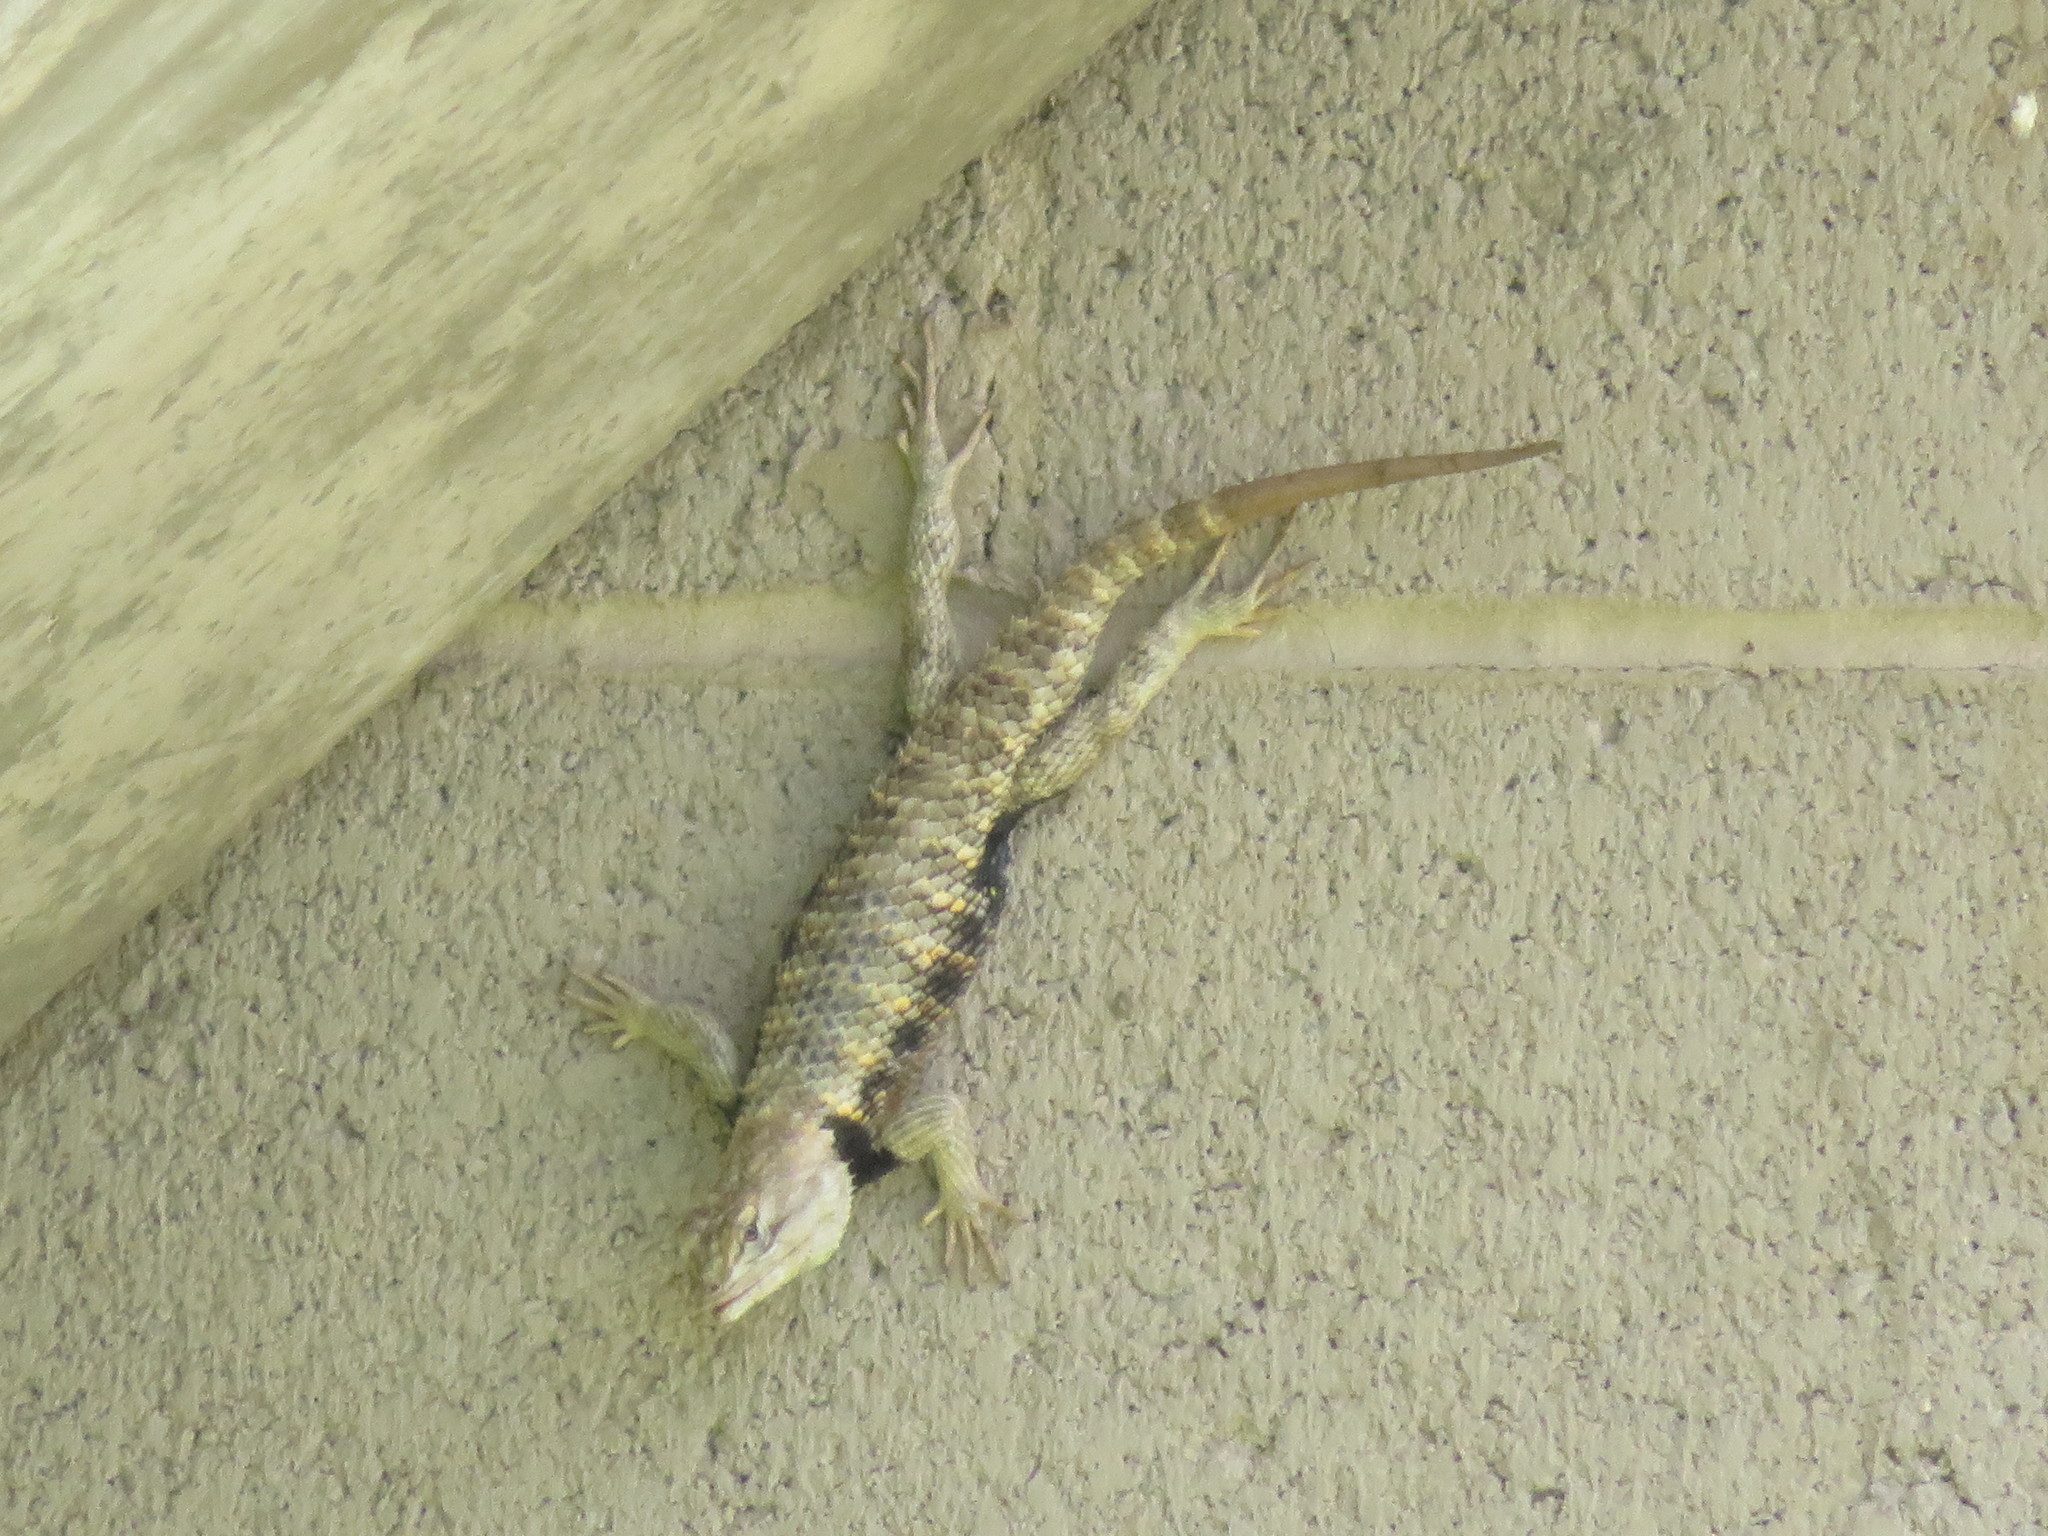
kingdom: Animalia
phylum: Chordata
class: Squamata
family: Phrynosomatidae
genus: Sceloporus
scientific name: Sceloporus uniformis
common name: Yellow-backed spiny lizard
